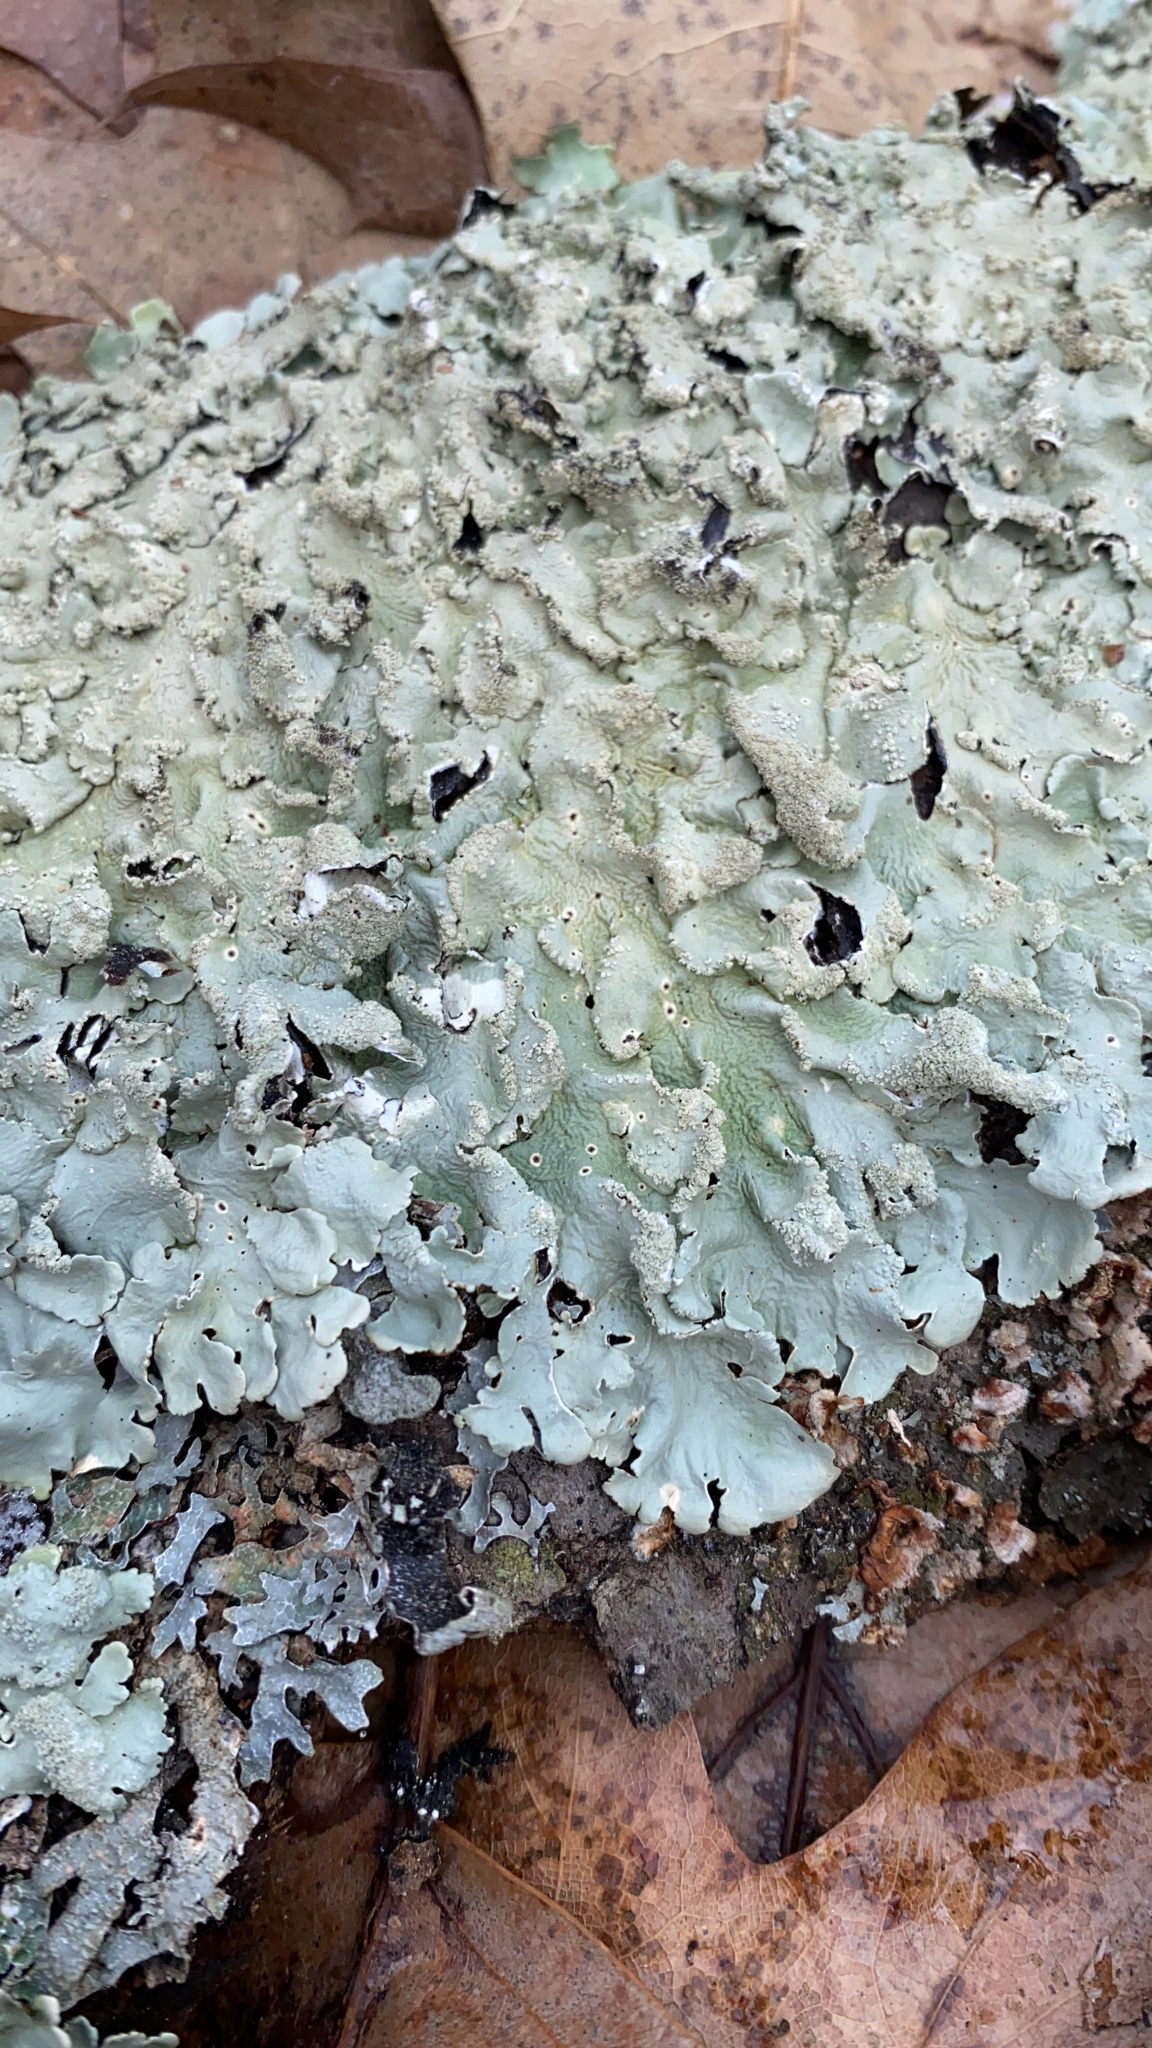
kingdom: Fungi
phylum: Ascomycota
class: Lecanoromycetes
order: Lecanorales
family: Parmeliaceae
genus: Flavoparmelia
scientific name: Flavoparmelia caperata
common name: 40-mile per hour lichen
